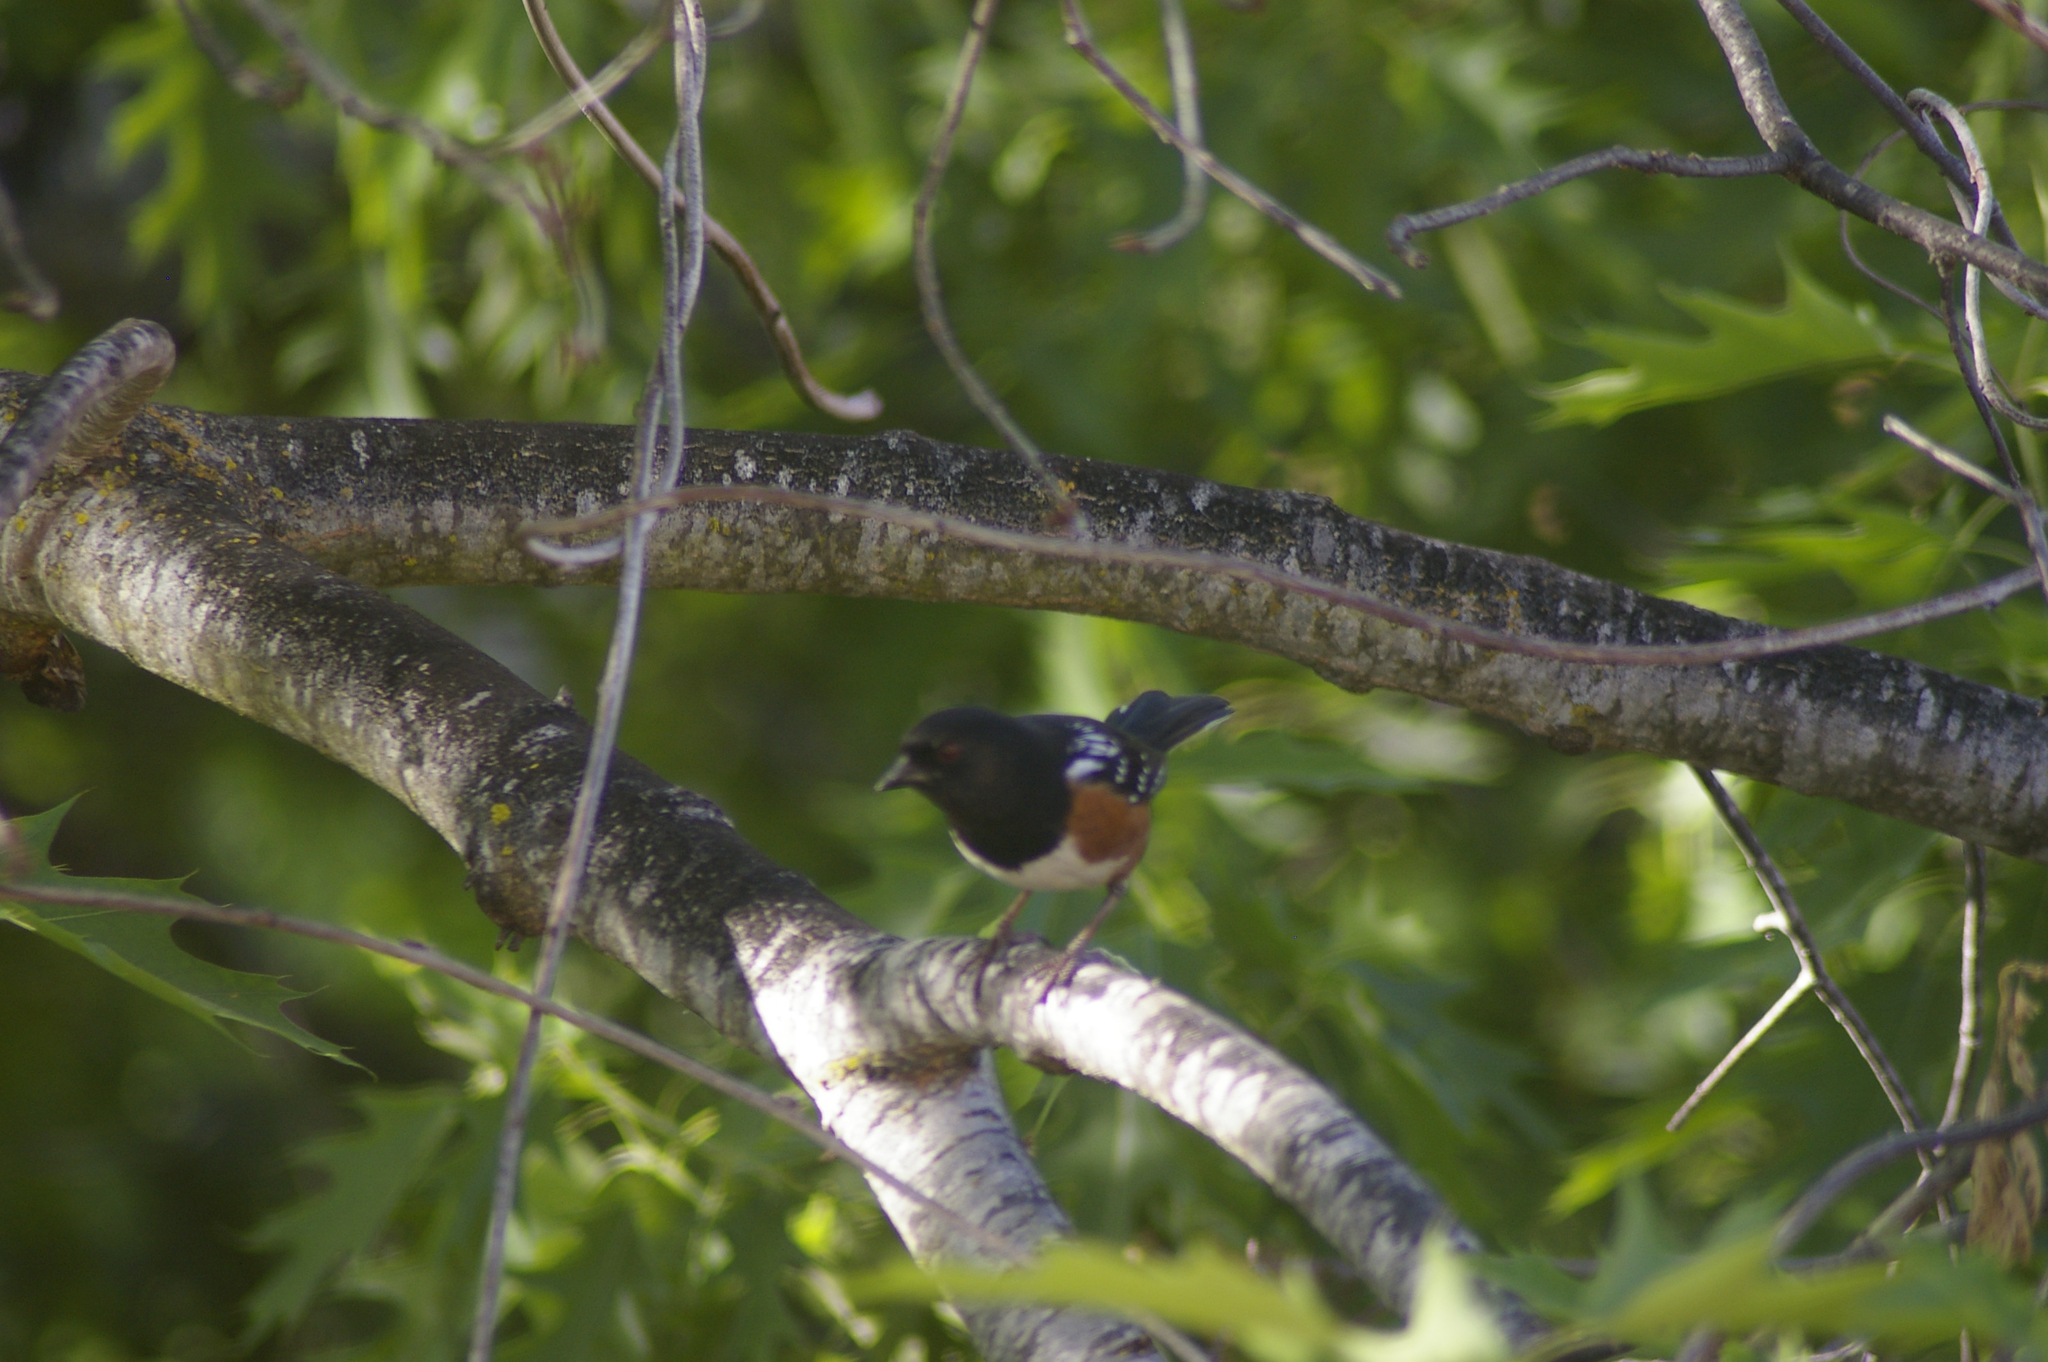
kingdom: Animalia
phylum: Chordata
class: Aves
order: Passeriformes
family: Passerellidae
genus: Pipilo
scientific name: Pipilo maculatus
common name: Spotted towhee
